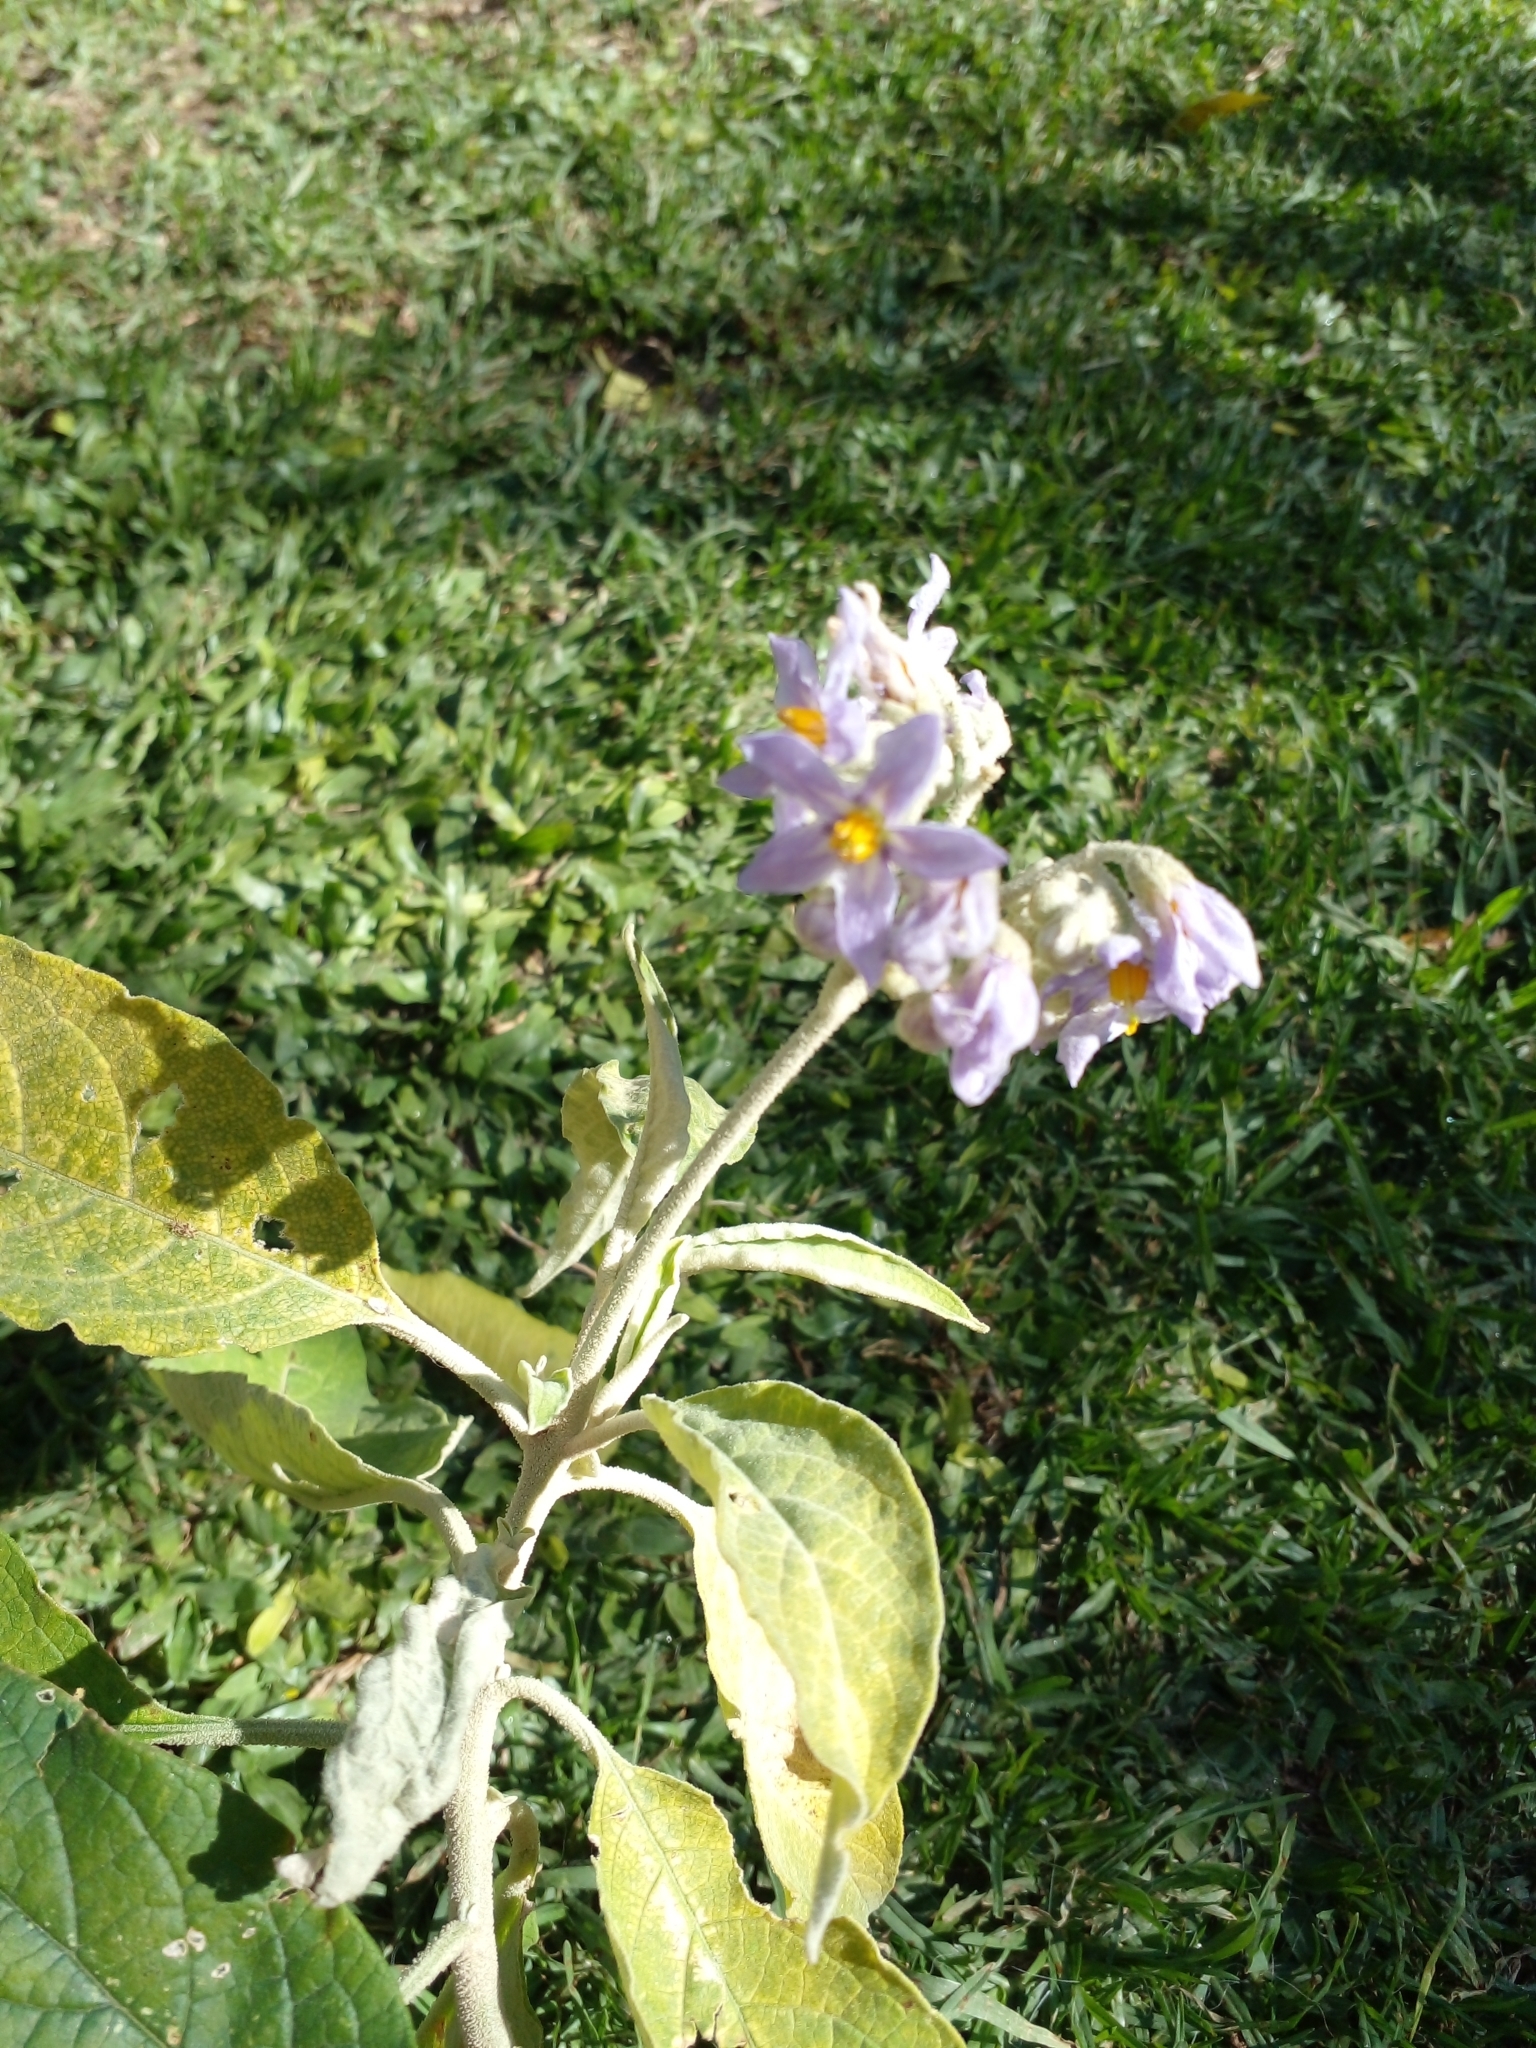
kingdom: Plantae
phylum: Tracheophyta
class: Magnoliopsida
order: Solanales
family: Solanaceae
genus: Solanum
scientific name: Solanum mauritianum
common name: Earleaf nightshade
